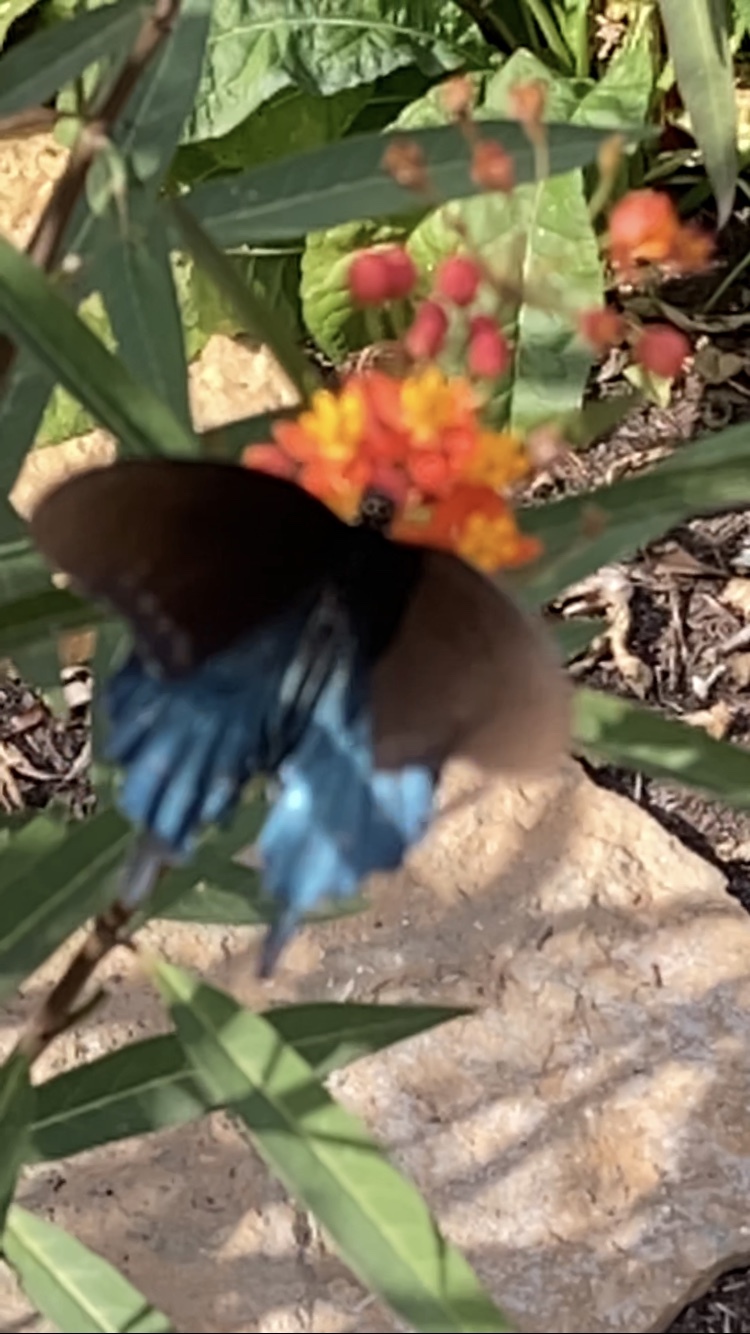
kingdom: Animalia
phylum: Arthropoda
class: Insecta
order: Lepidoptera
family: Papilionidae
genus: Battus
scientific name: Battus philenor
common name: Pipevine swallowtail
